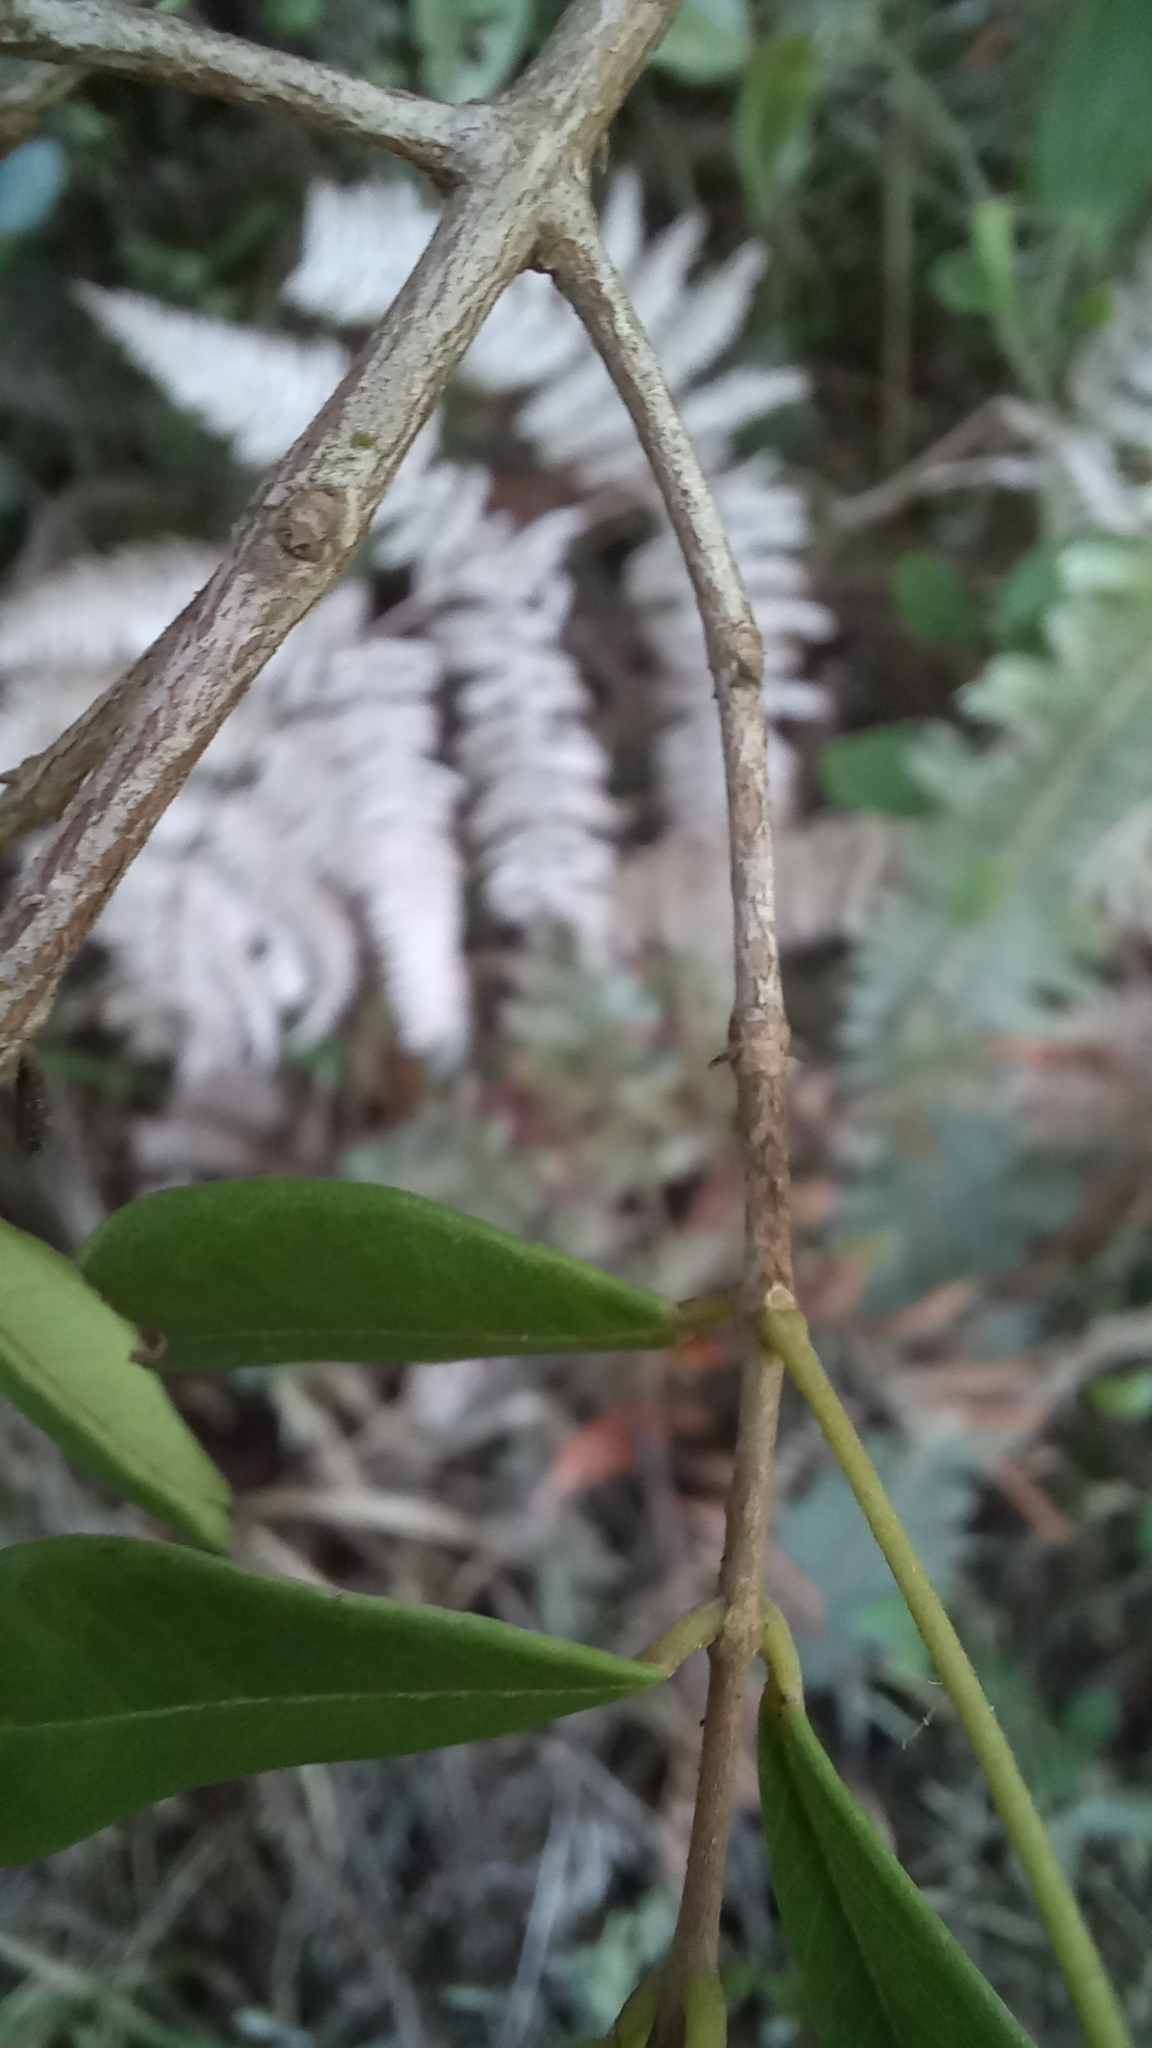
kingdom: Plantae
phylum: Tracheophyta
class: Magnoliopsida
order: Myrtales
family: Myrtaceae
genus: Myrcia
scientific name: Myrcia palustris
